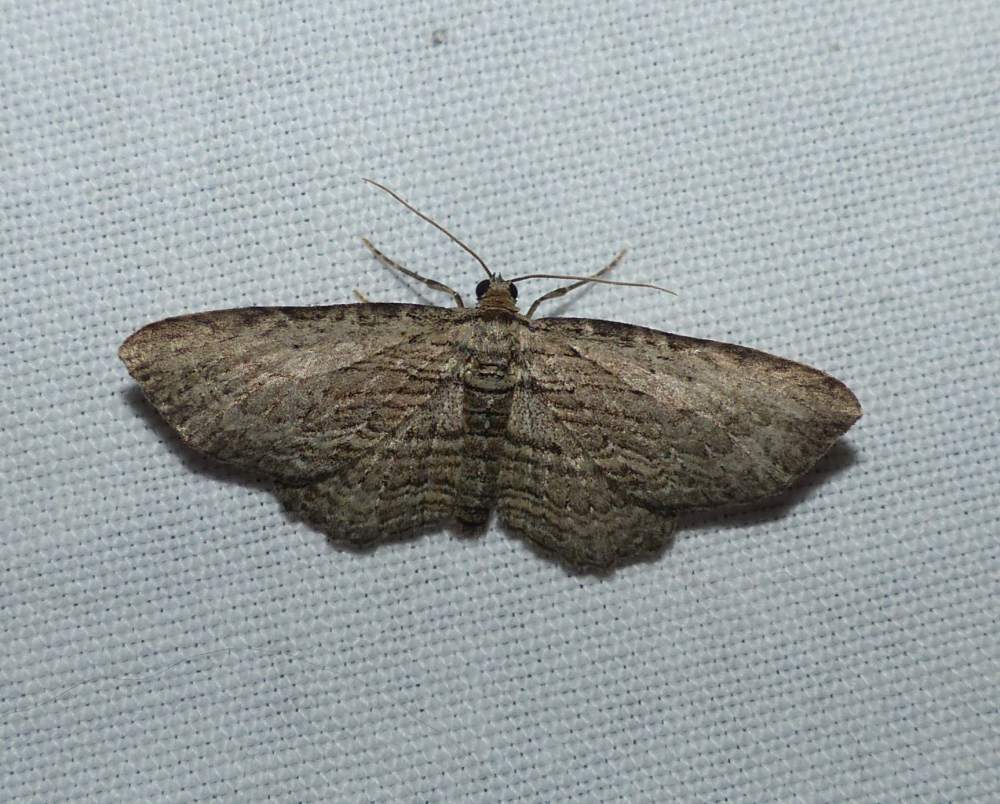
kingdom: Animalia
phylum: Arthropoda
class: Insecta
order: Lepidoptera
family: Geometridae
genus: Horisme
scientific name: Horisme intestinata
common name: Brown bark carpet
